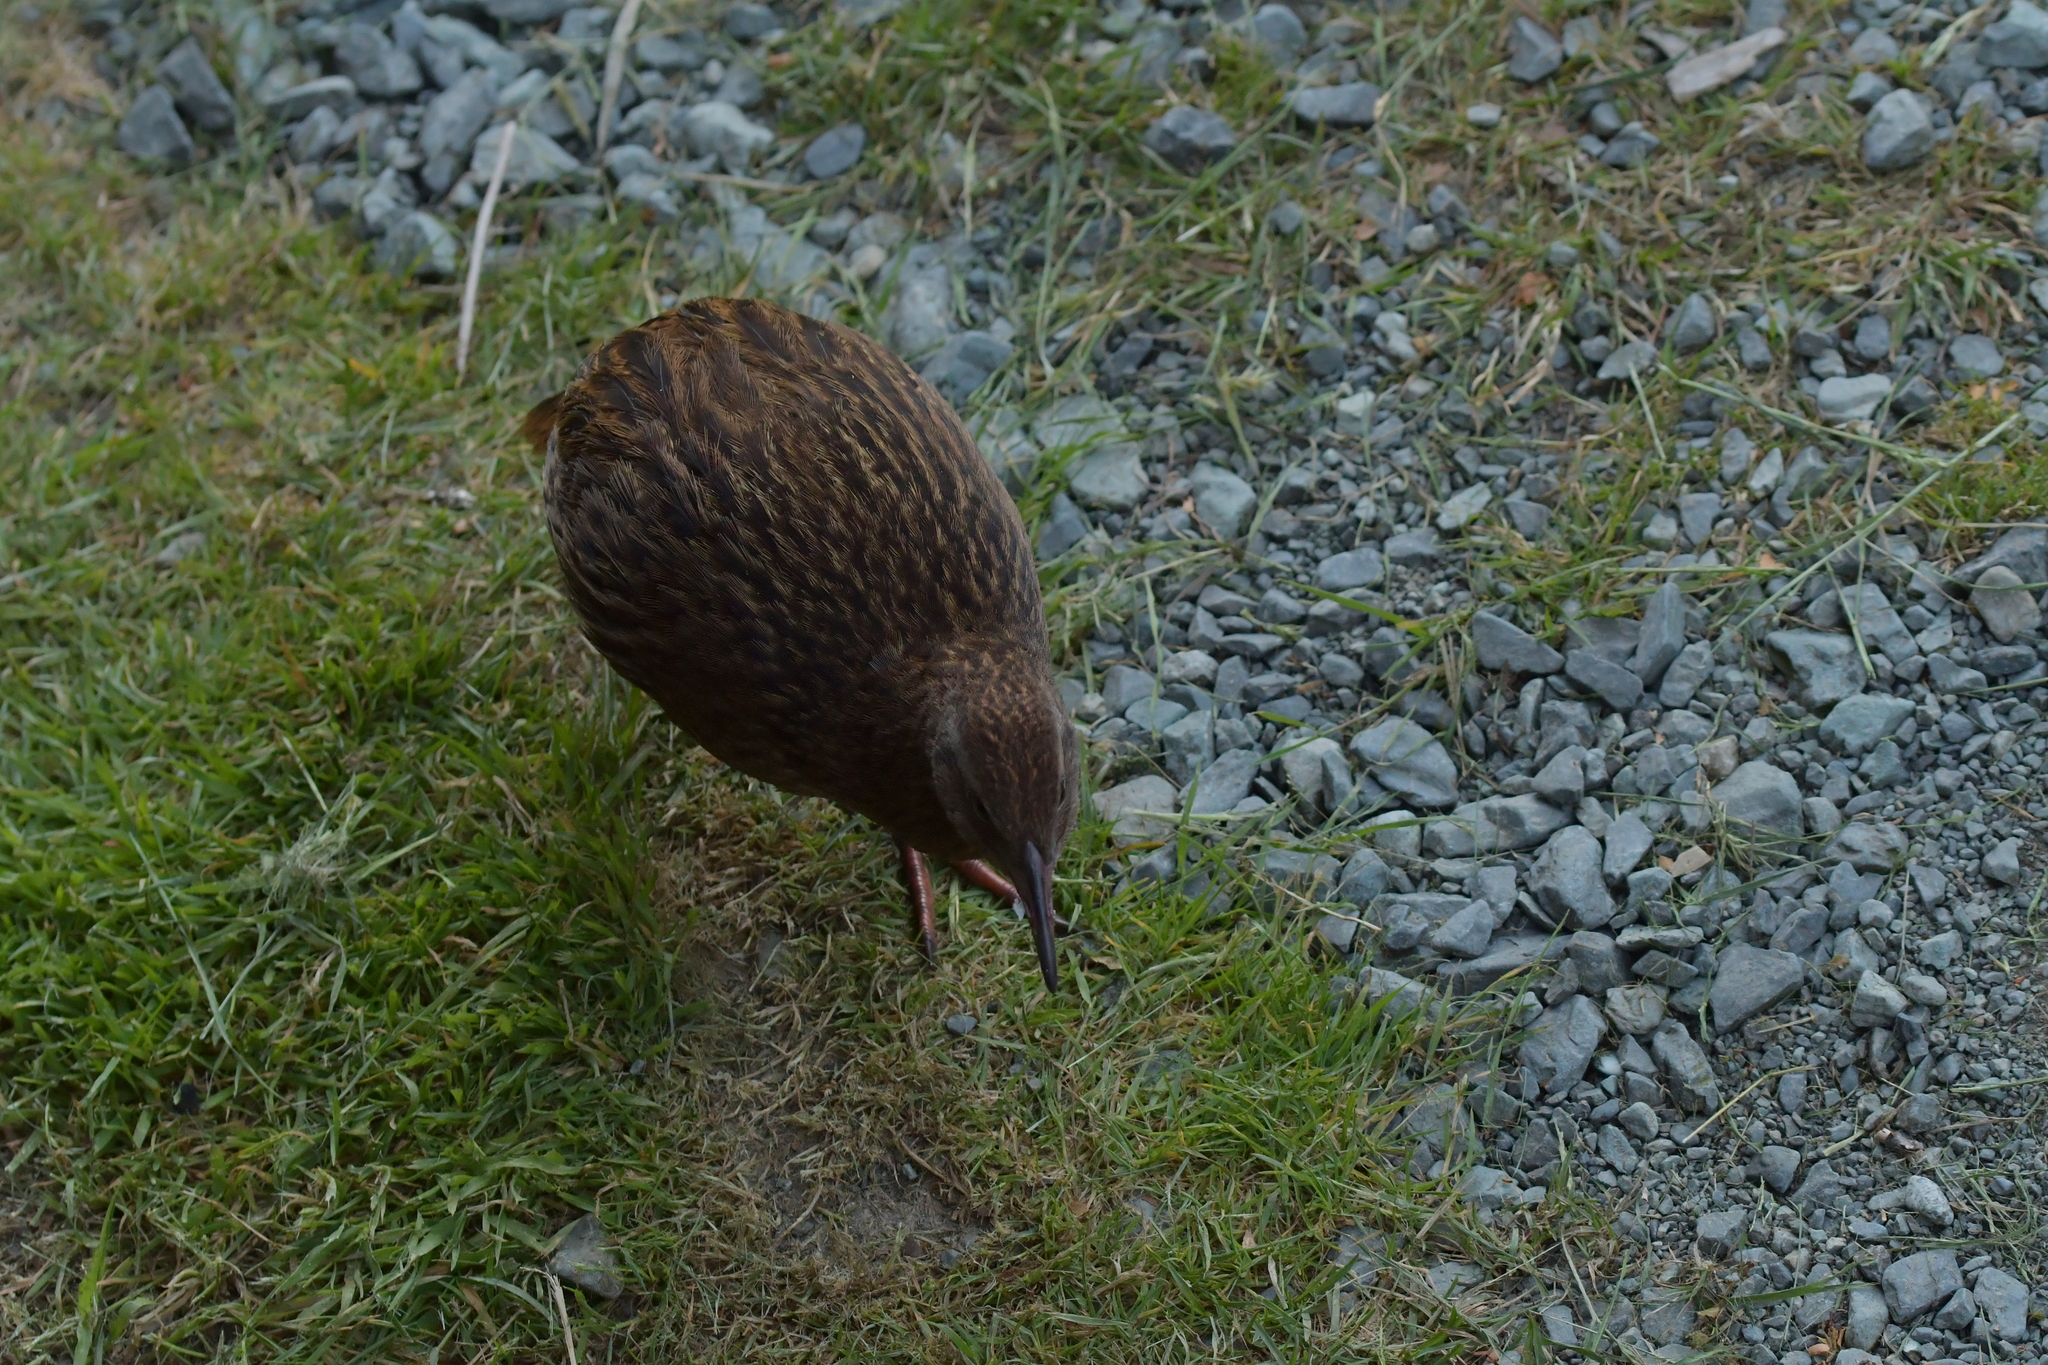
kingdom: Animalia
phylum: Chordata
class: Aves
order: Gruiformes
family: Rallidae
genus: Gallirallus
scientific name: Gallirallus australis
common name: Weka
